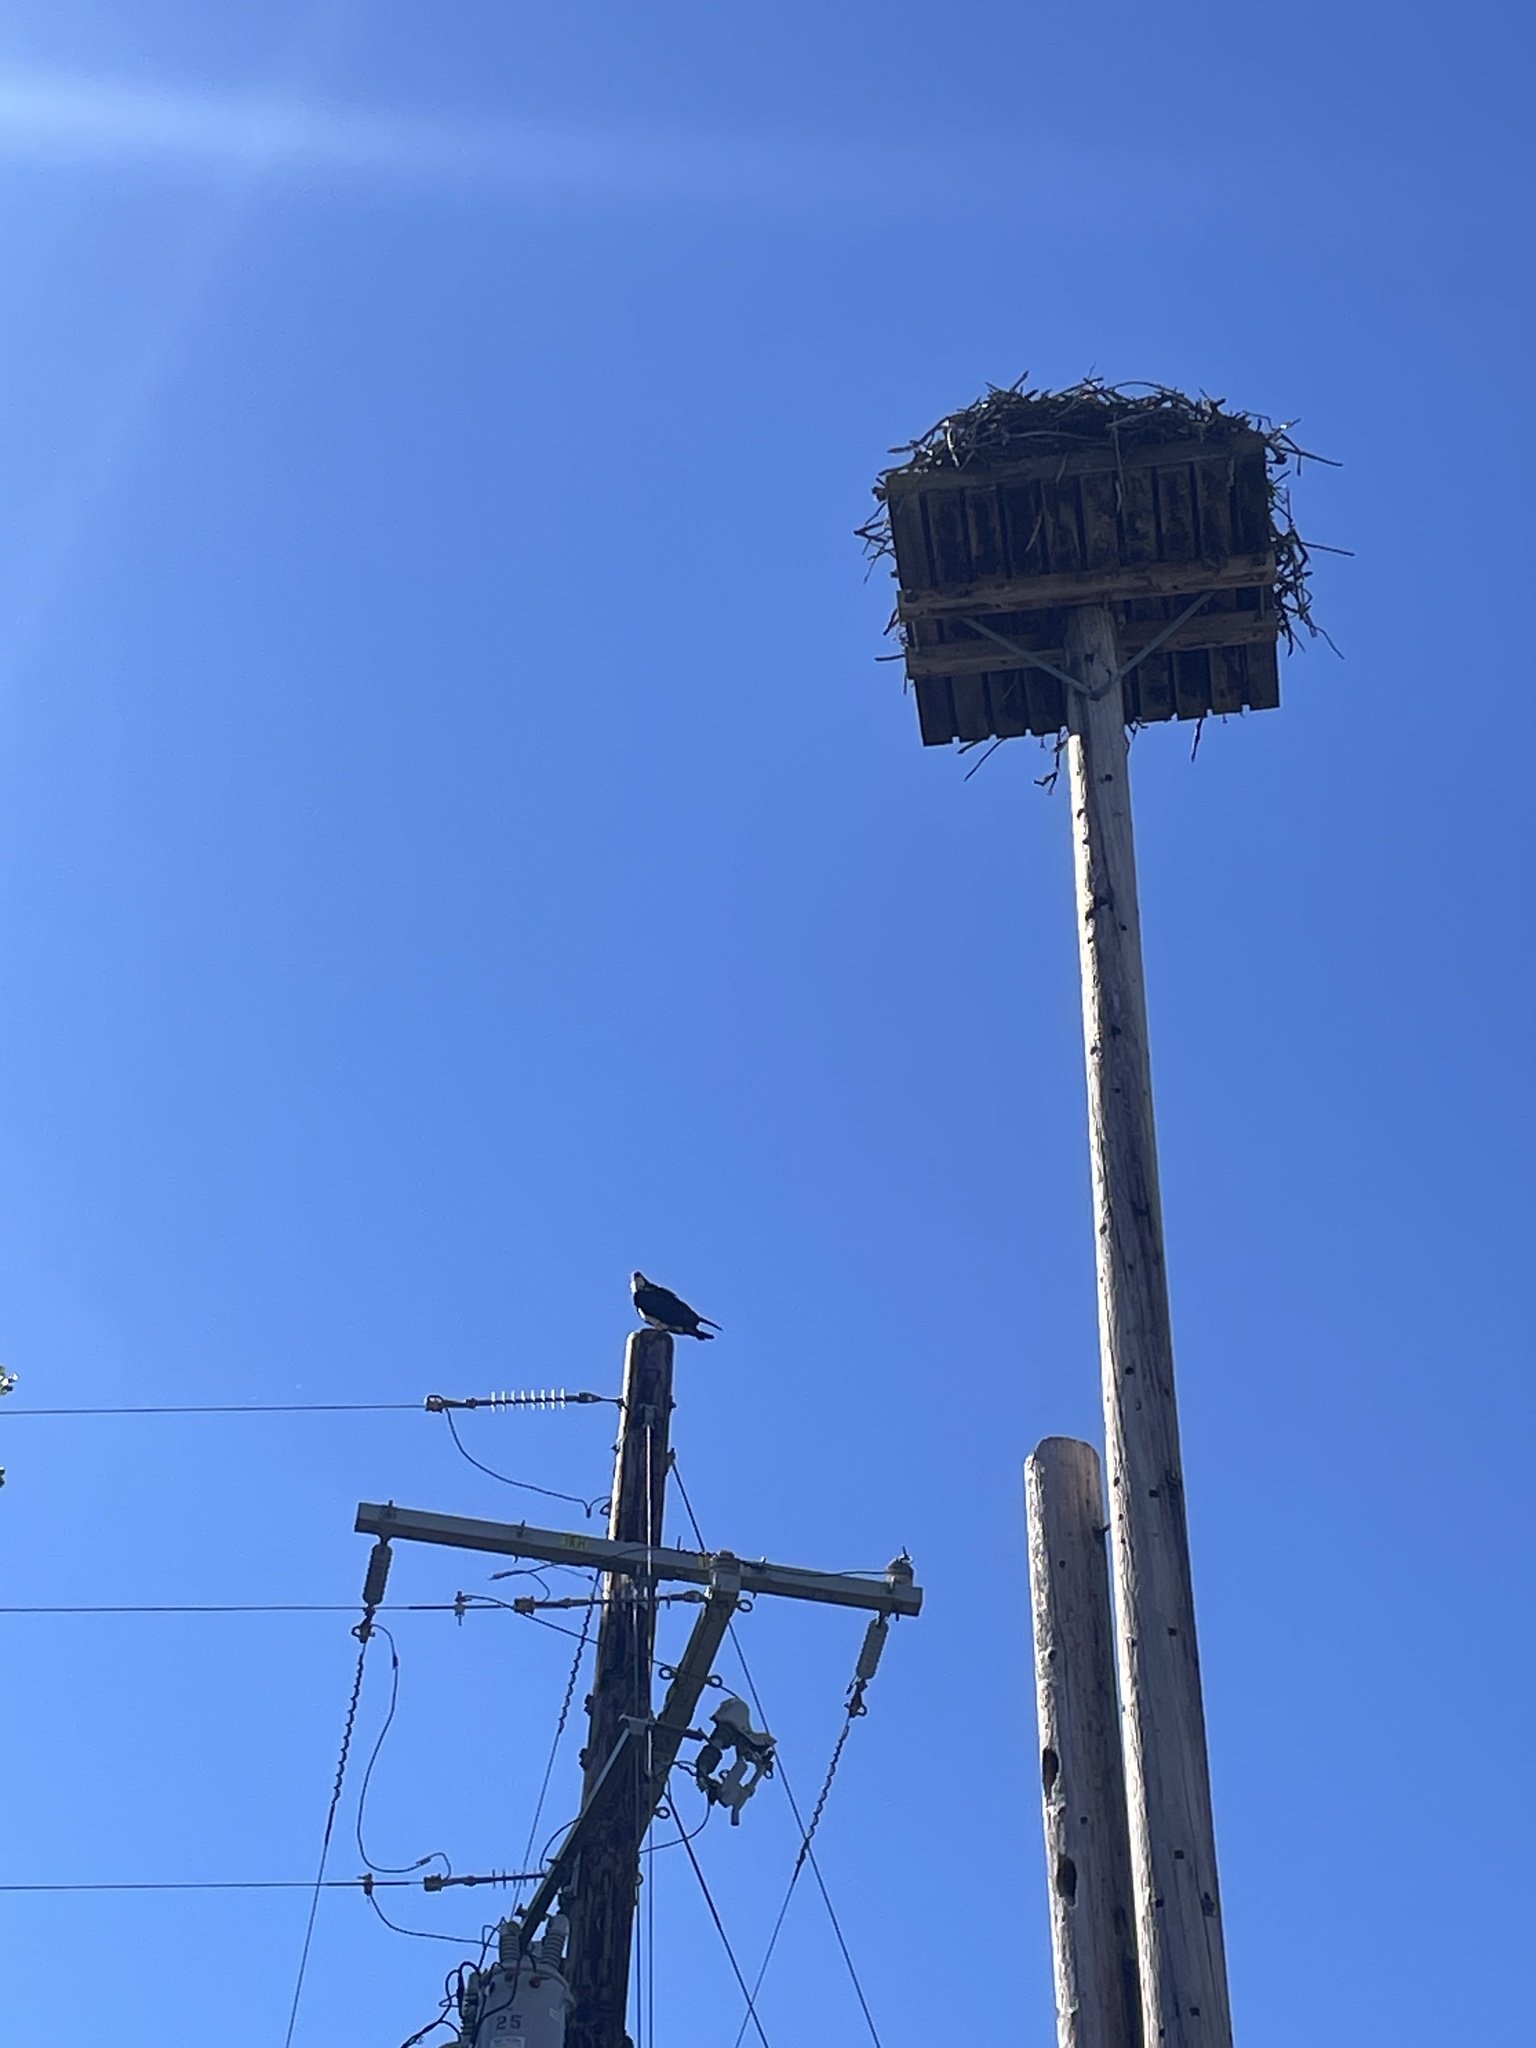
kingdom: Animalia
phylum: Chordata
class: Aves
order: Accipitriformes
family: Pandionidae
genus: Pandion
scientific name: Pandion haliaetus
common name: Osprey
